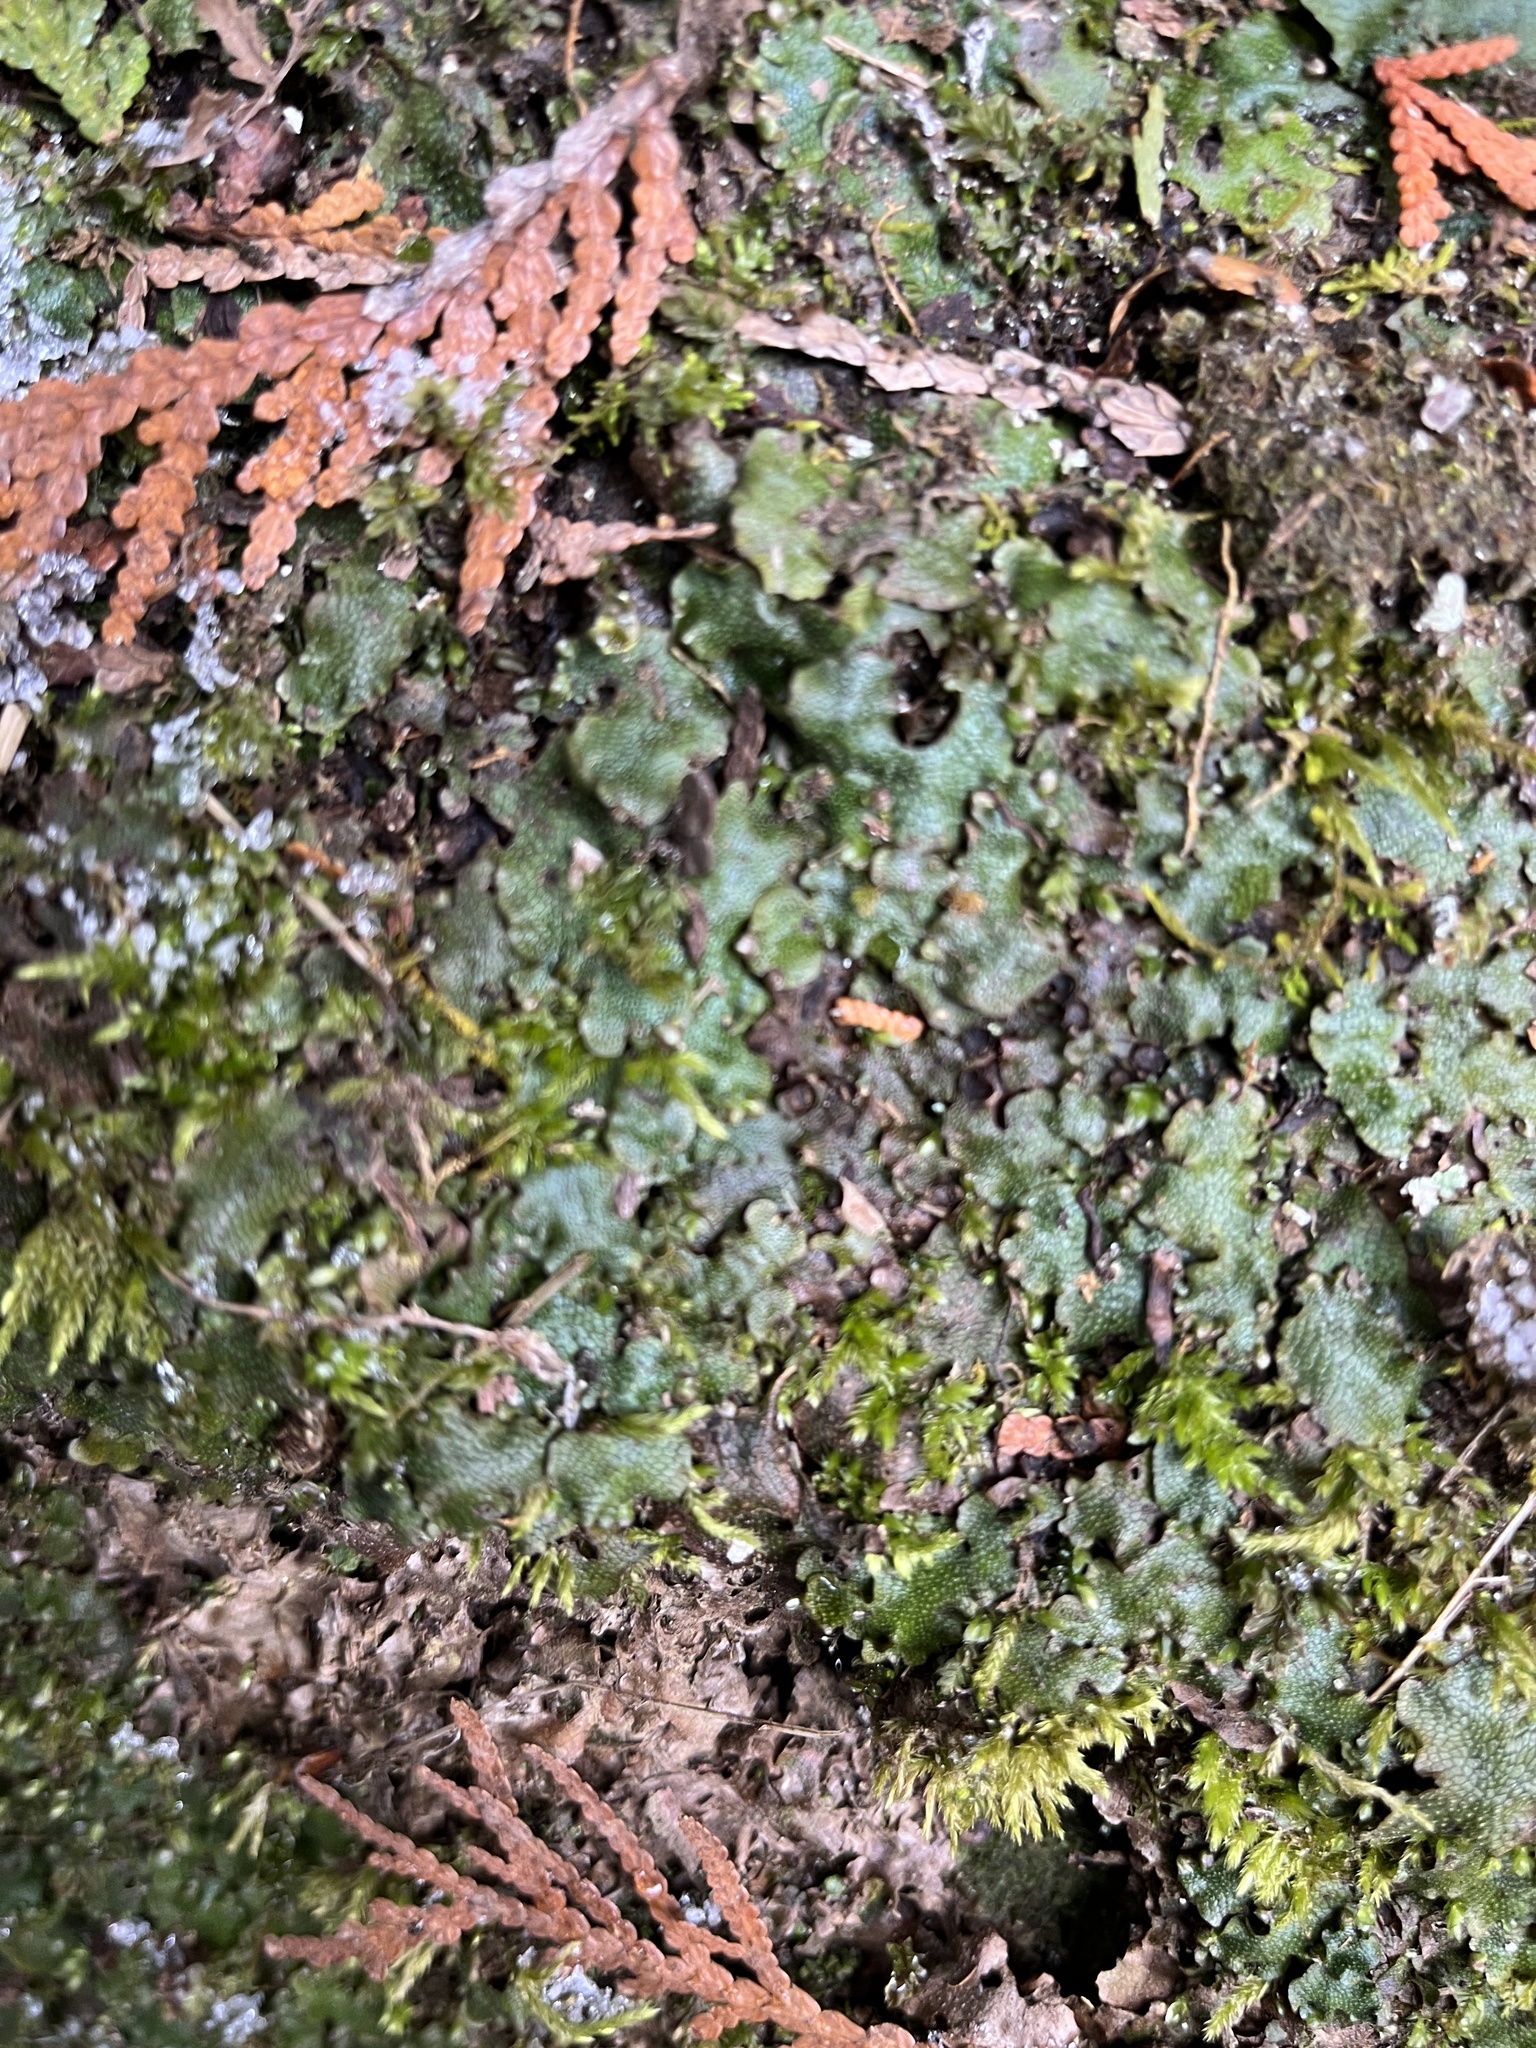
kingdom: Plantae
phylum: Marchantiophyta
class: Marchantiopsida
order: Marchantiales
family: Conocephalaceae
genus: Conocephalum
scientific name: Conocephalum salebrosum
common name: Cat-tongue liverwort
